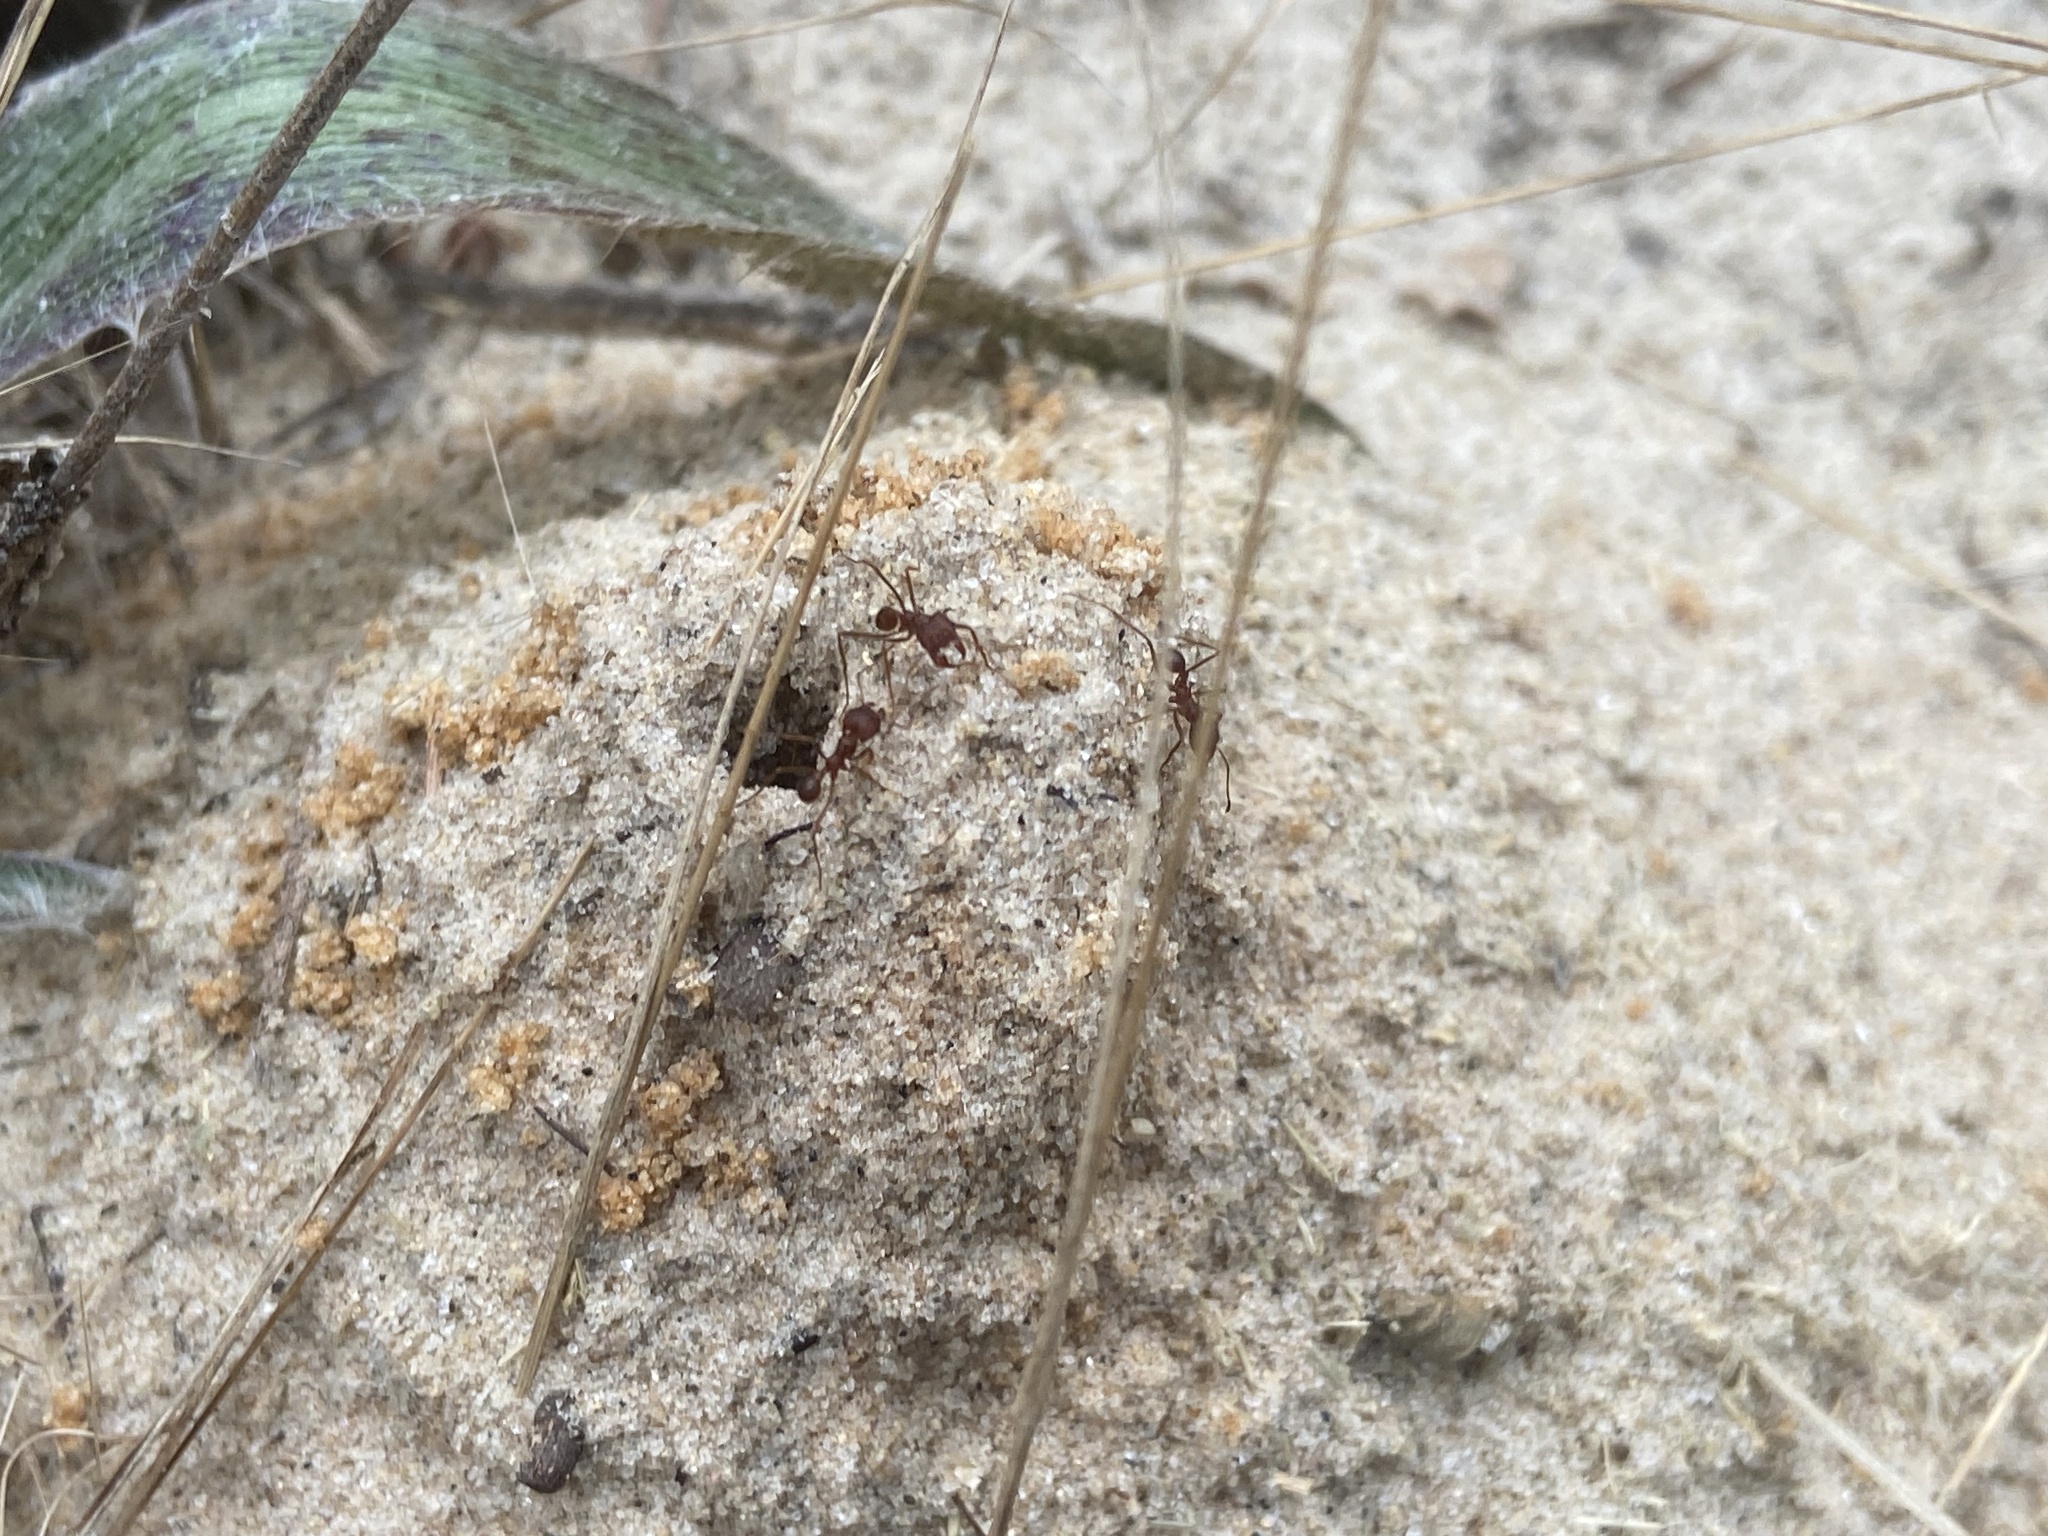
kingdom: Animalia
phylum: Arthropoda
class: Insecta
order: Hymenoptera
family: Formicidae
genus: Atta
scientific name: Atta texana
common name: Texas leafcutting ant
